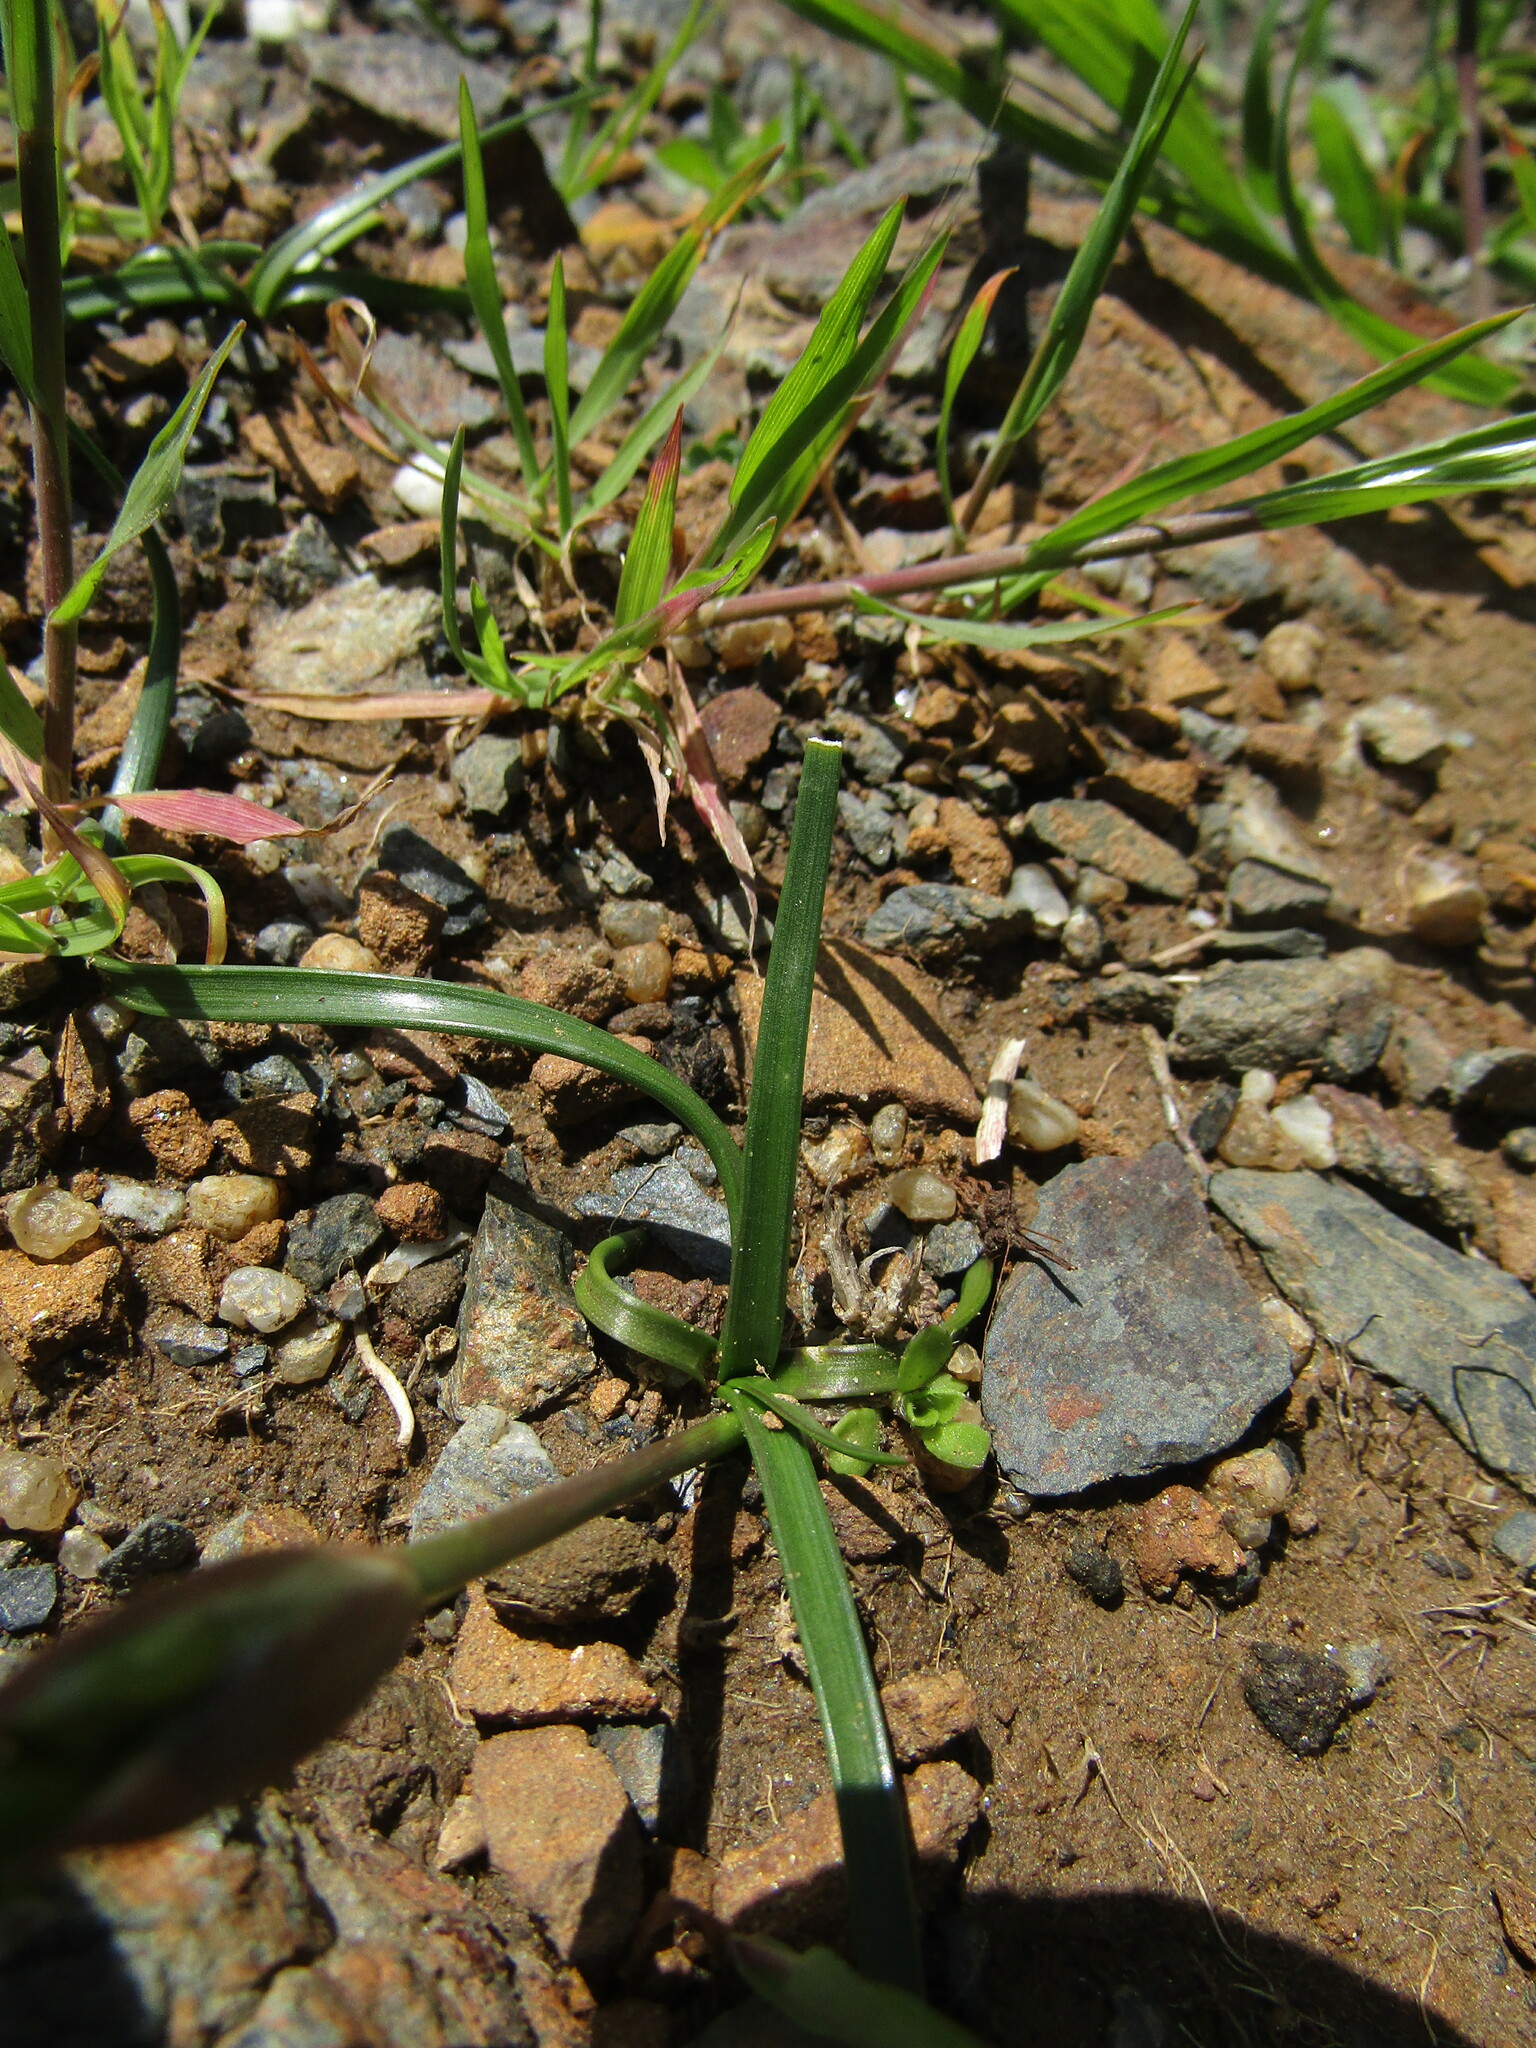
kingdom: Plantae
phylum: Tracheophyta
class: Liliopsida
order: Asparagales
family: Amaryllidaceae
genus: Nothoscordum
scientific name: Nothoscordum bivalve
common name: Crow-poison
